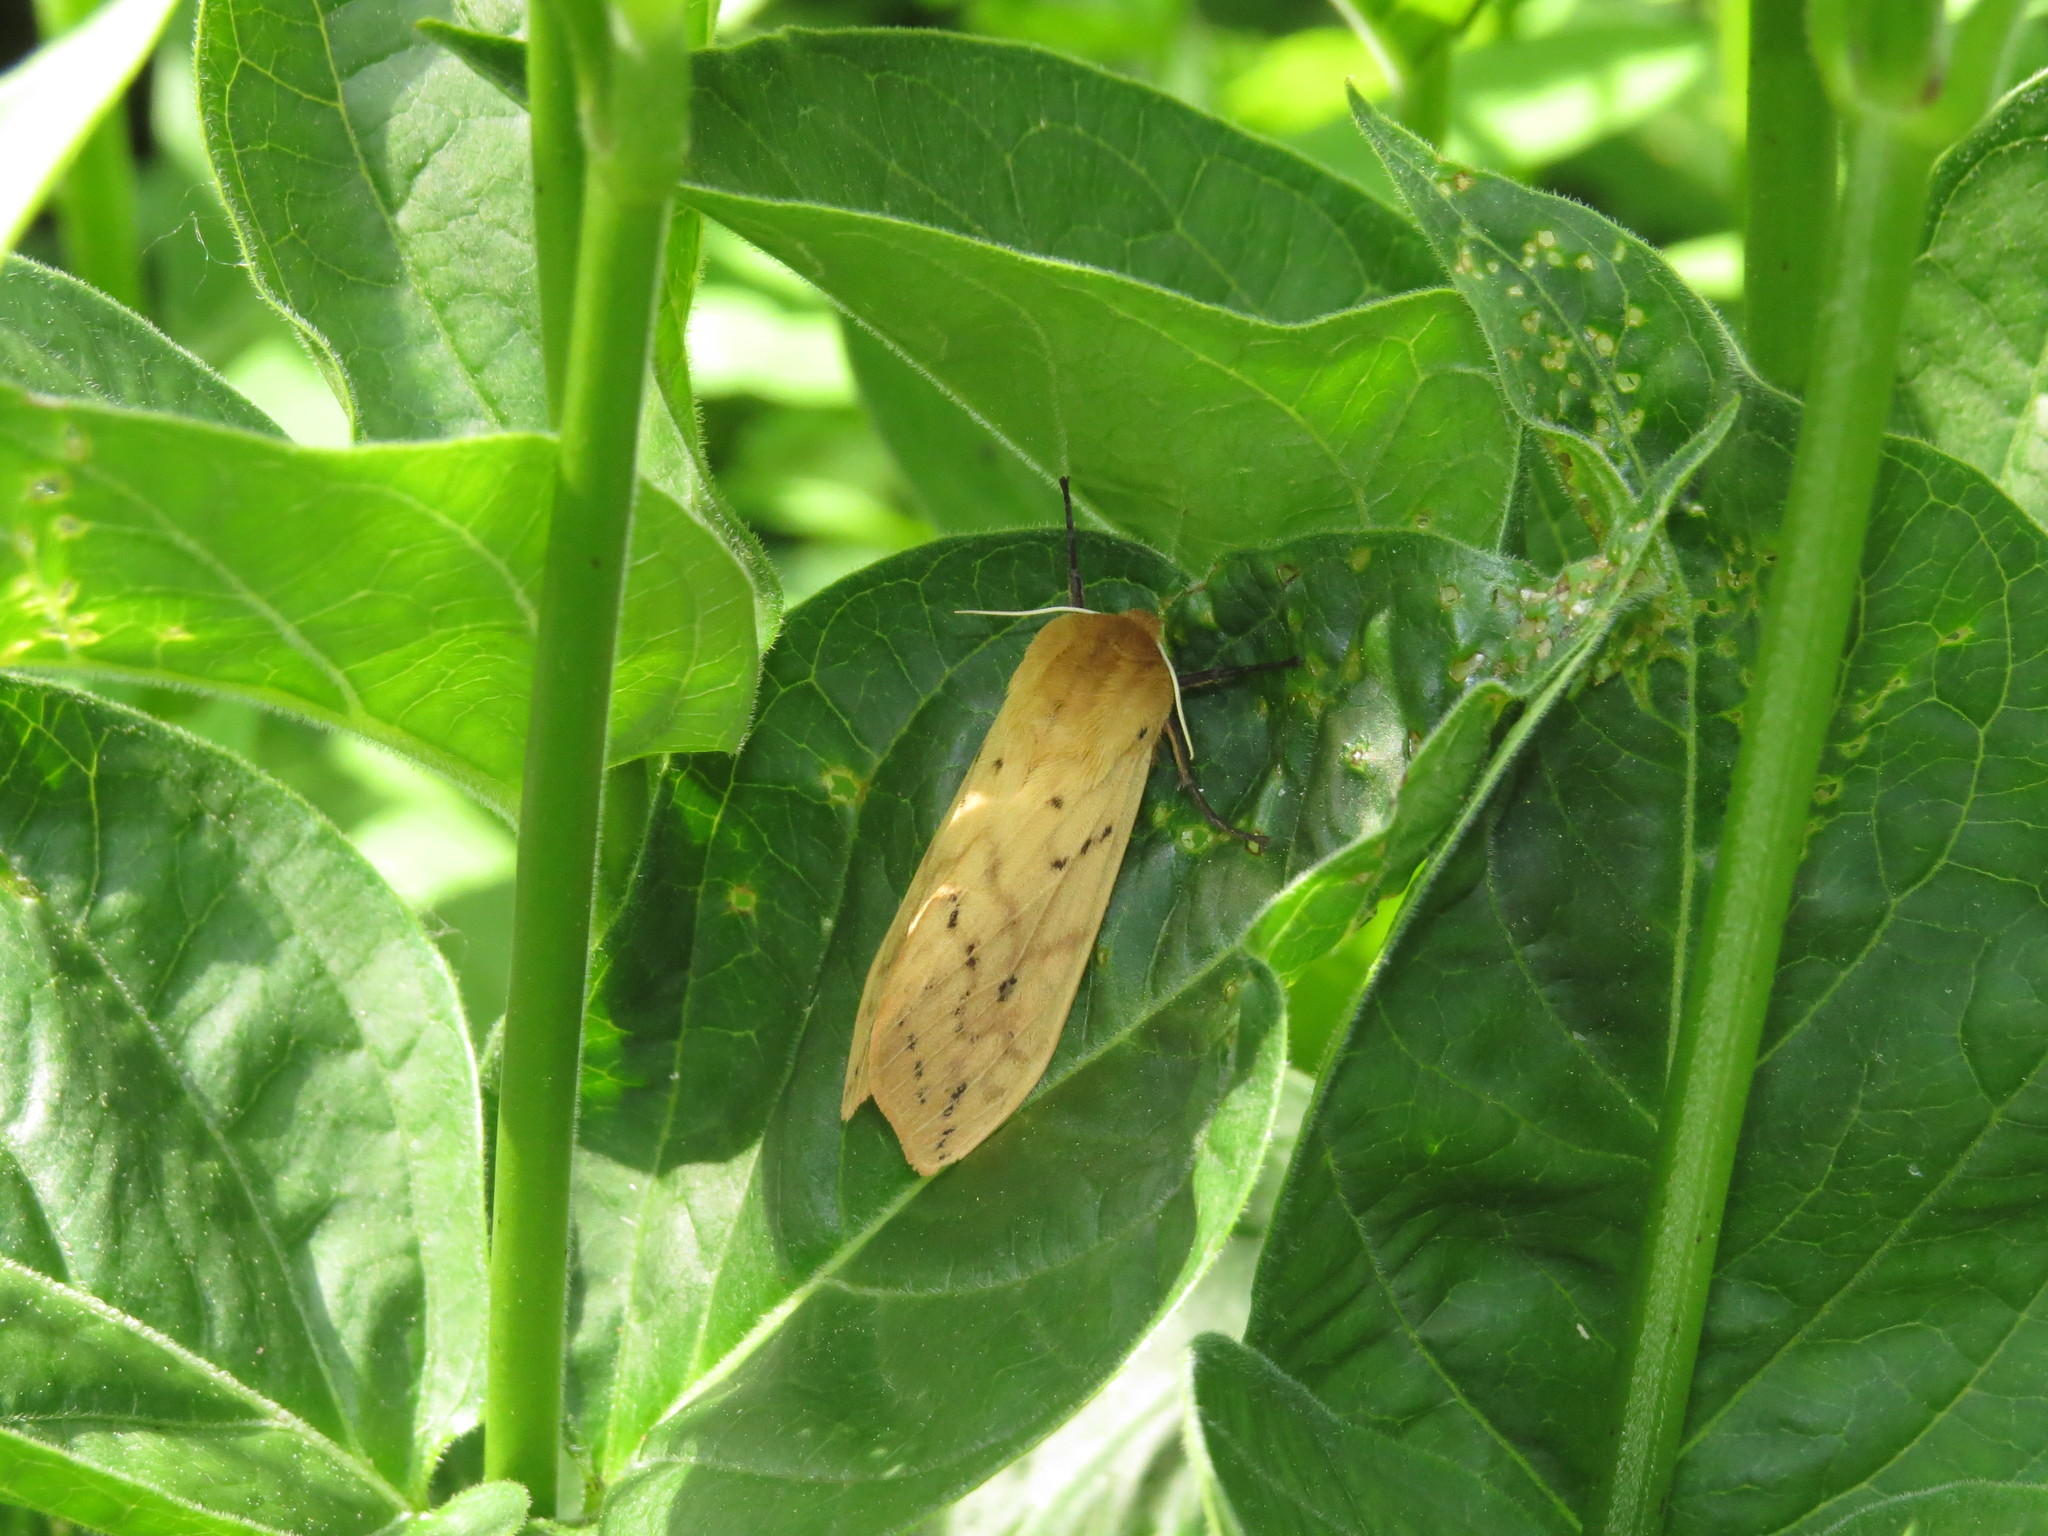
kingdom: Animalia
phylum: Arthropoda
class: Insecta
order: Lepidoptera
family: Erebidae
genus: Pyrrharctia
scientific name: Pyrrharctia isabella
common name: Isabella tiger moth
